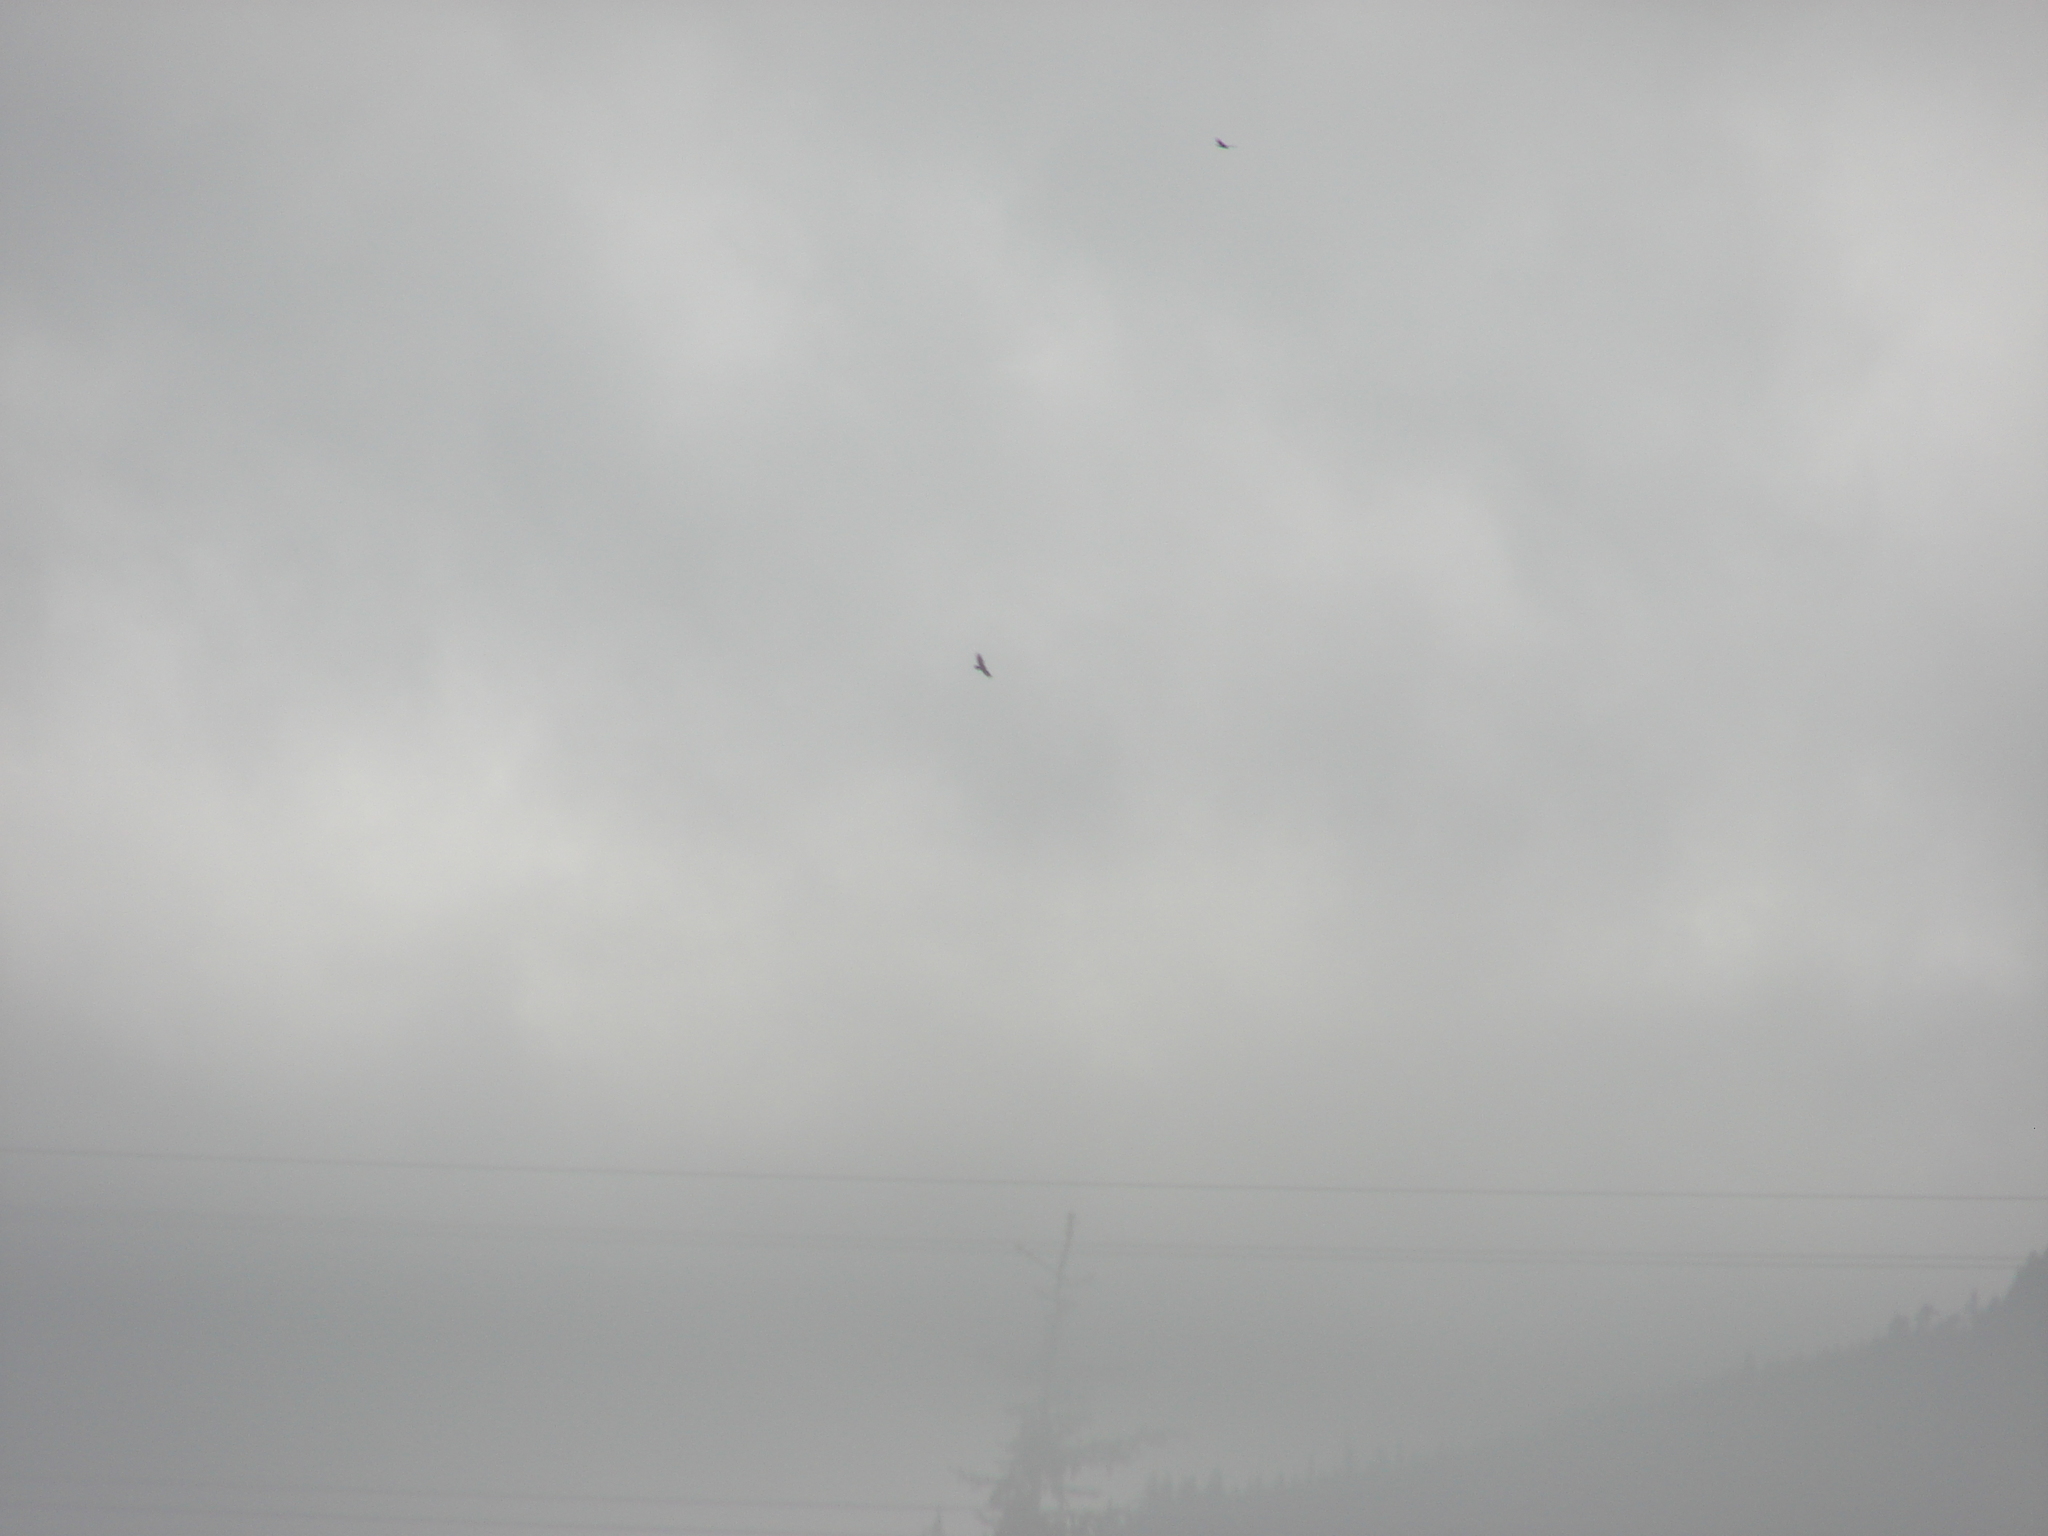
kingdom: Animalia
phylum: Chordata
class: Aves
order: Accipitriformes
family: Cathartidae
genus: Cathartes
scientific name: Cathartes aura
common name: Turkey vulture
